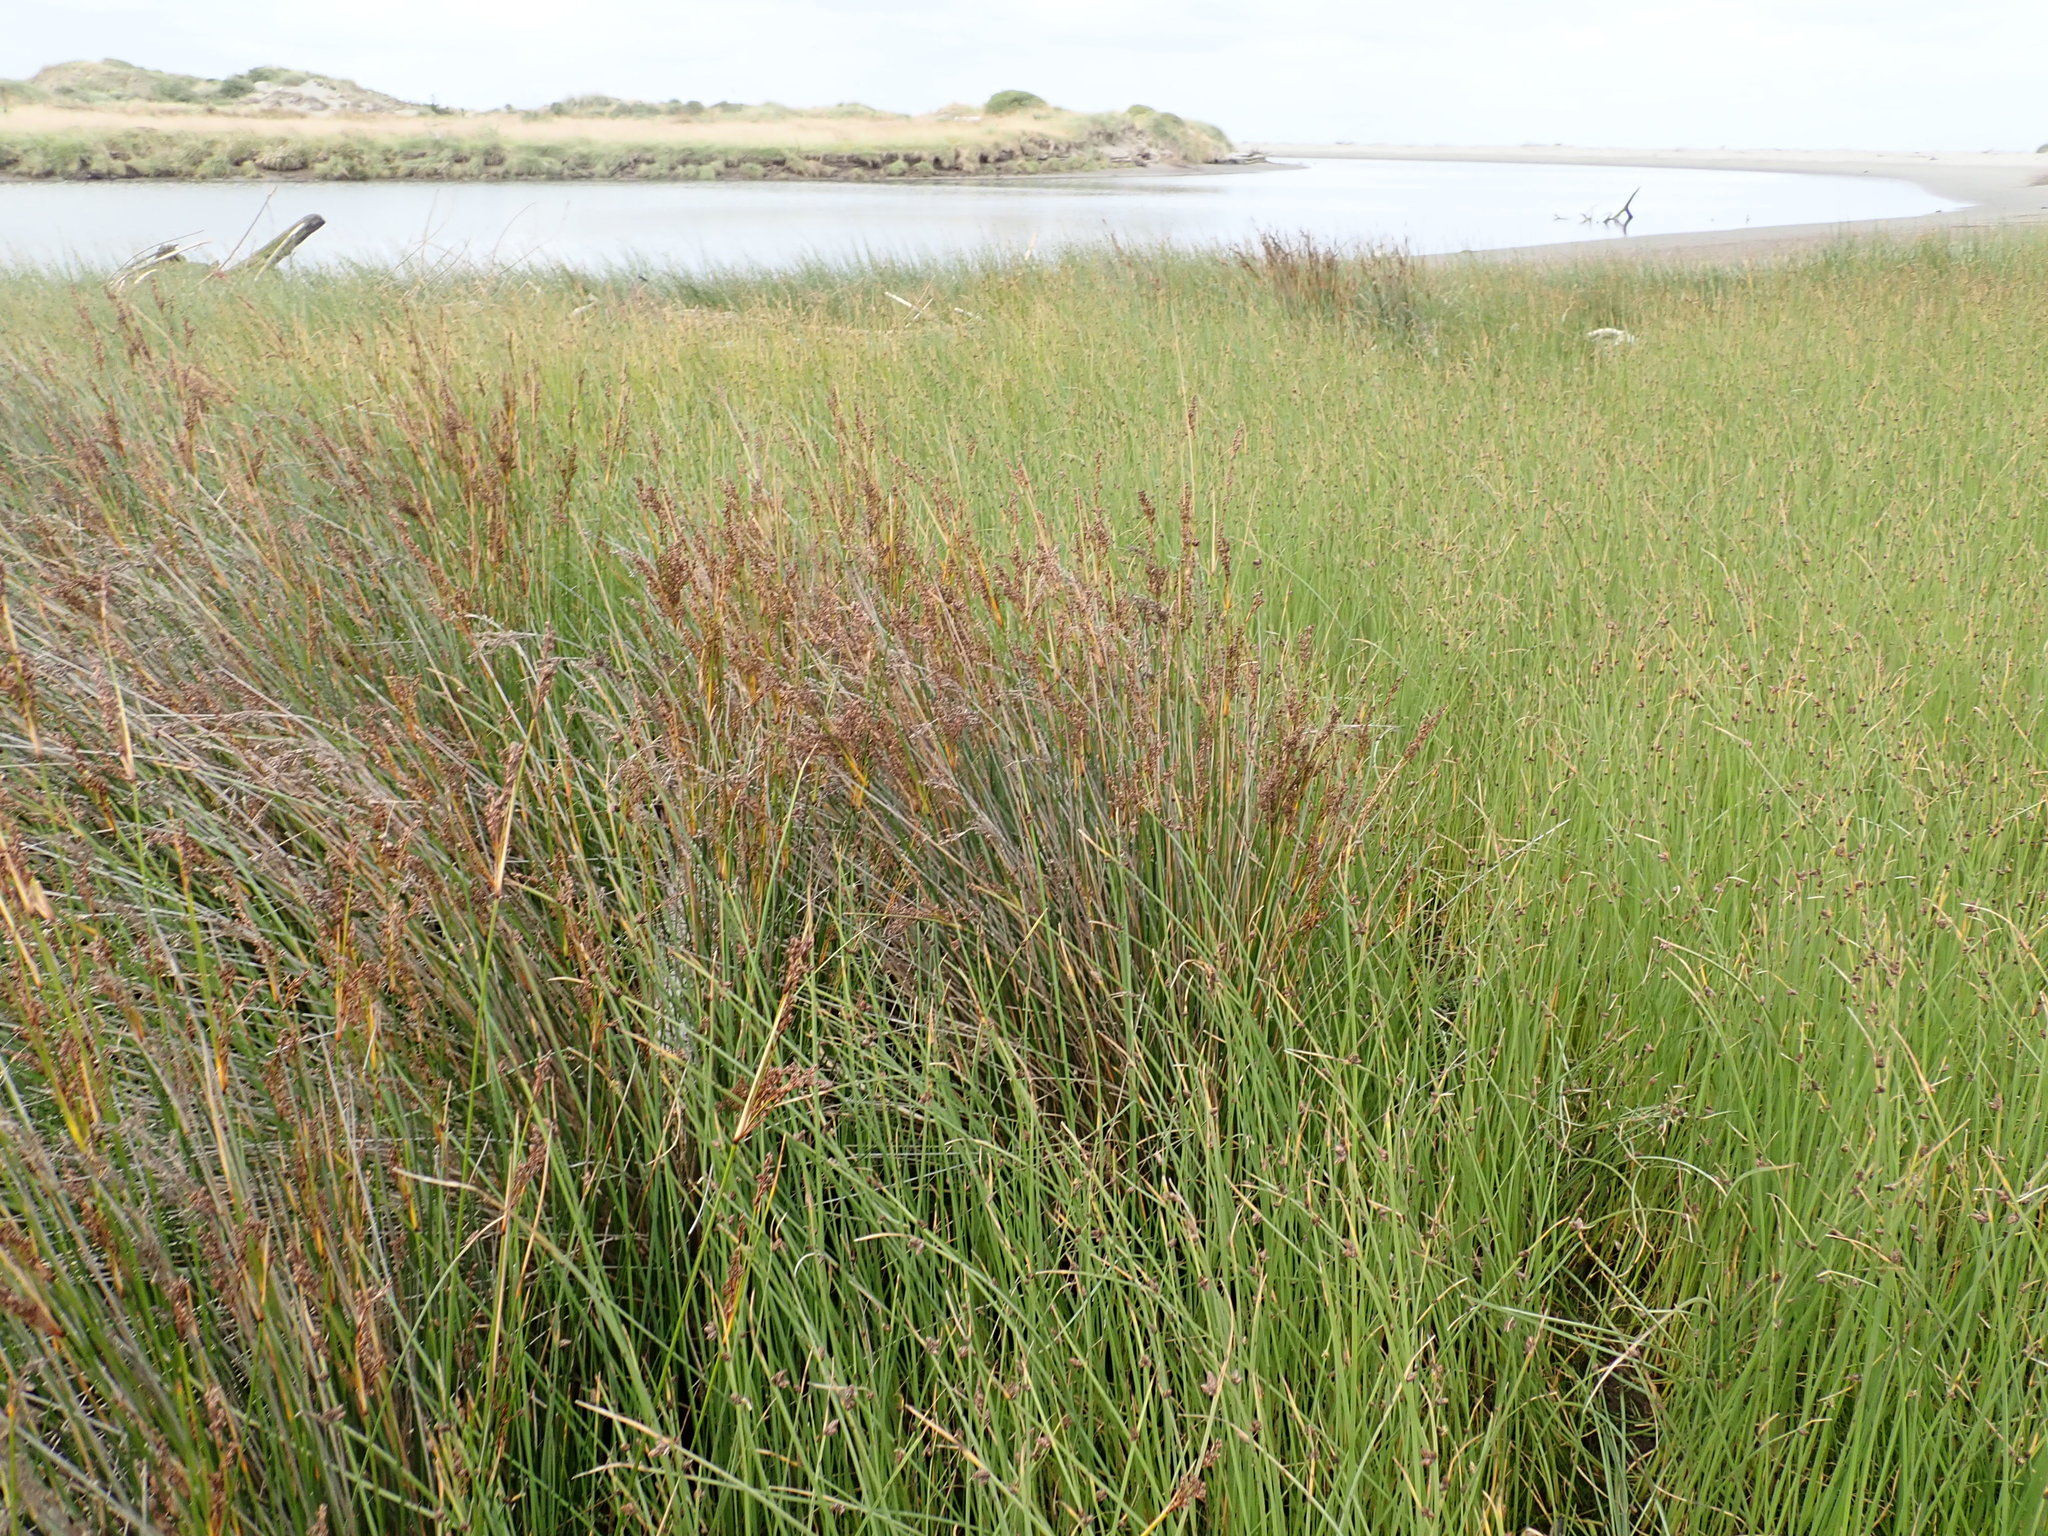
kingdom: Plantae
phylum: Tracheophyta
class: Liliopsida
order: Poales
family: Juncaceae
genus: Juncus
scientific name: Juncus kraussii
